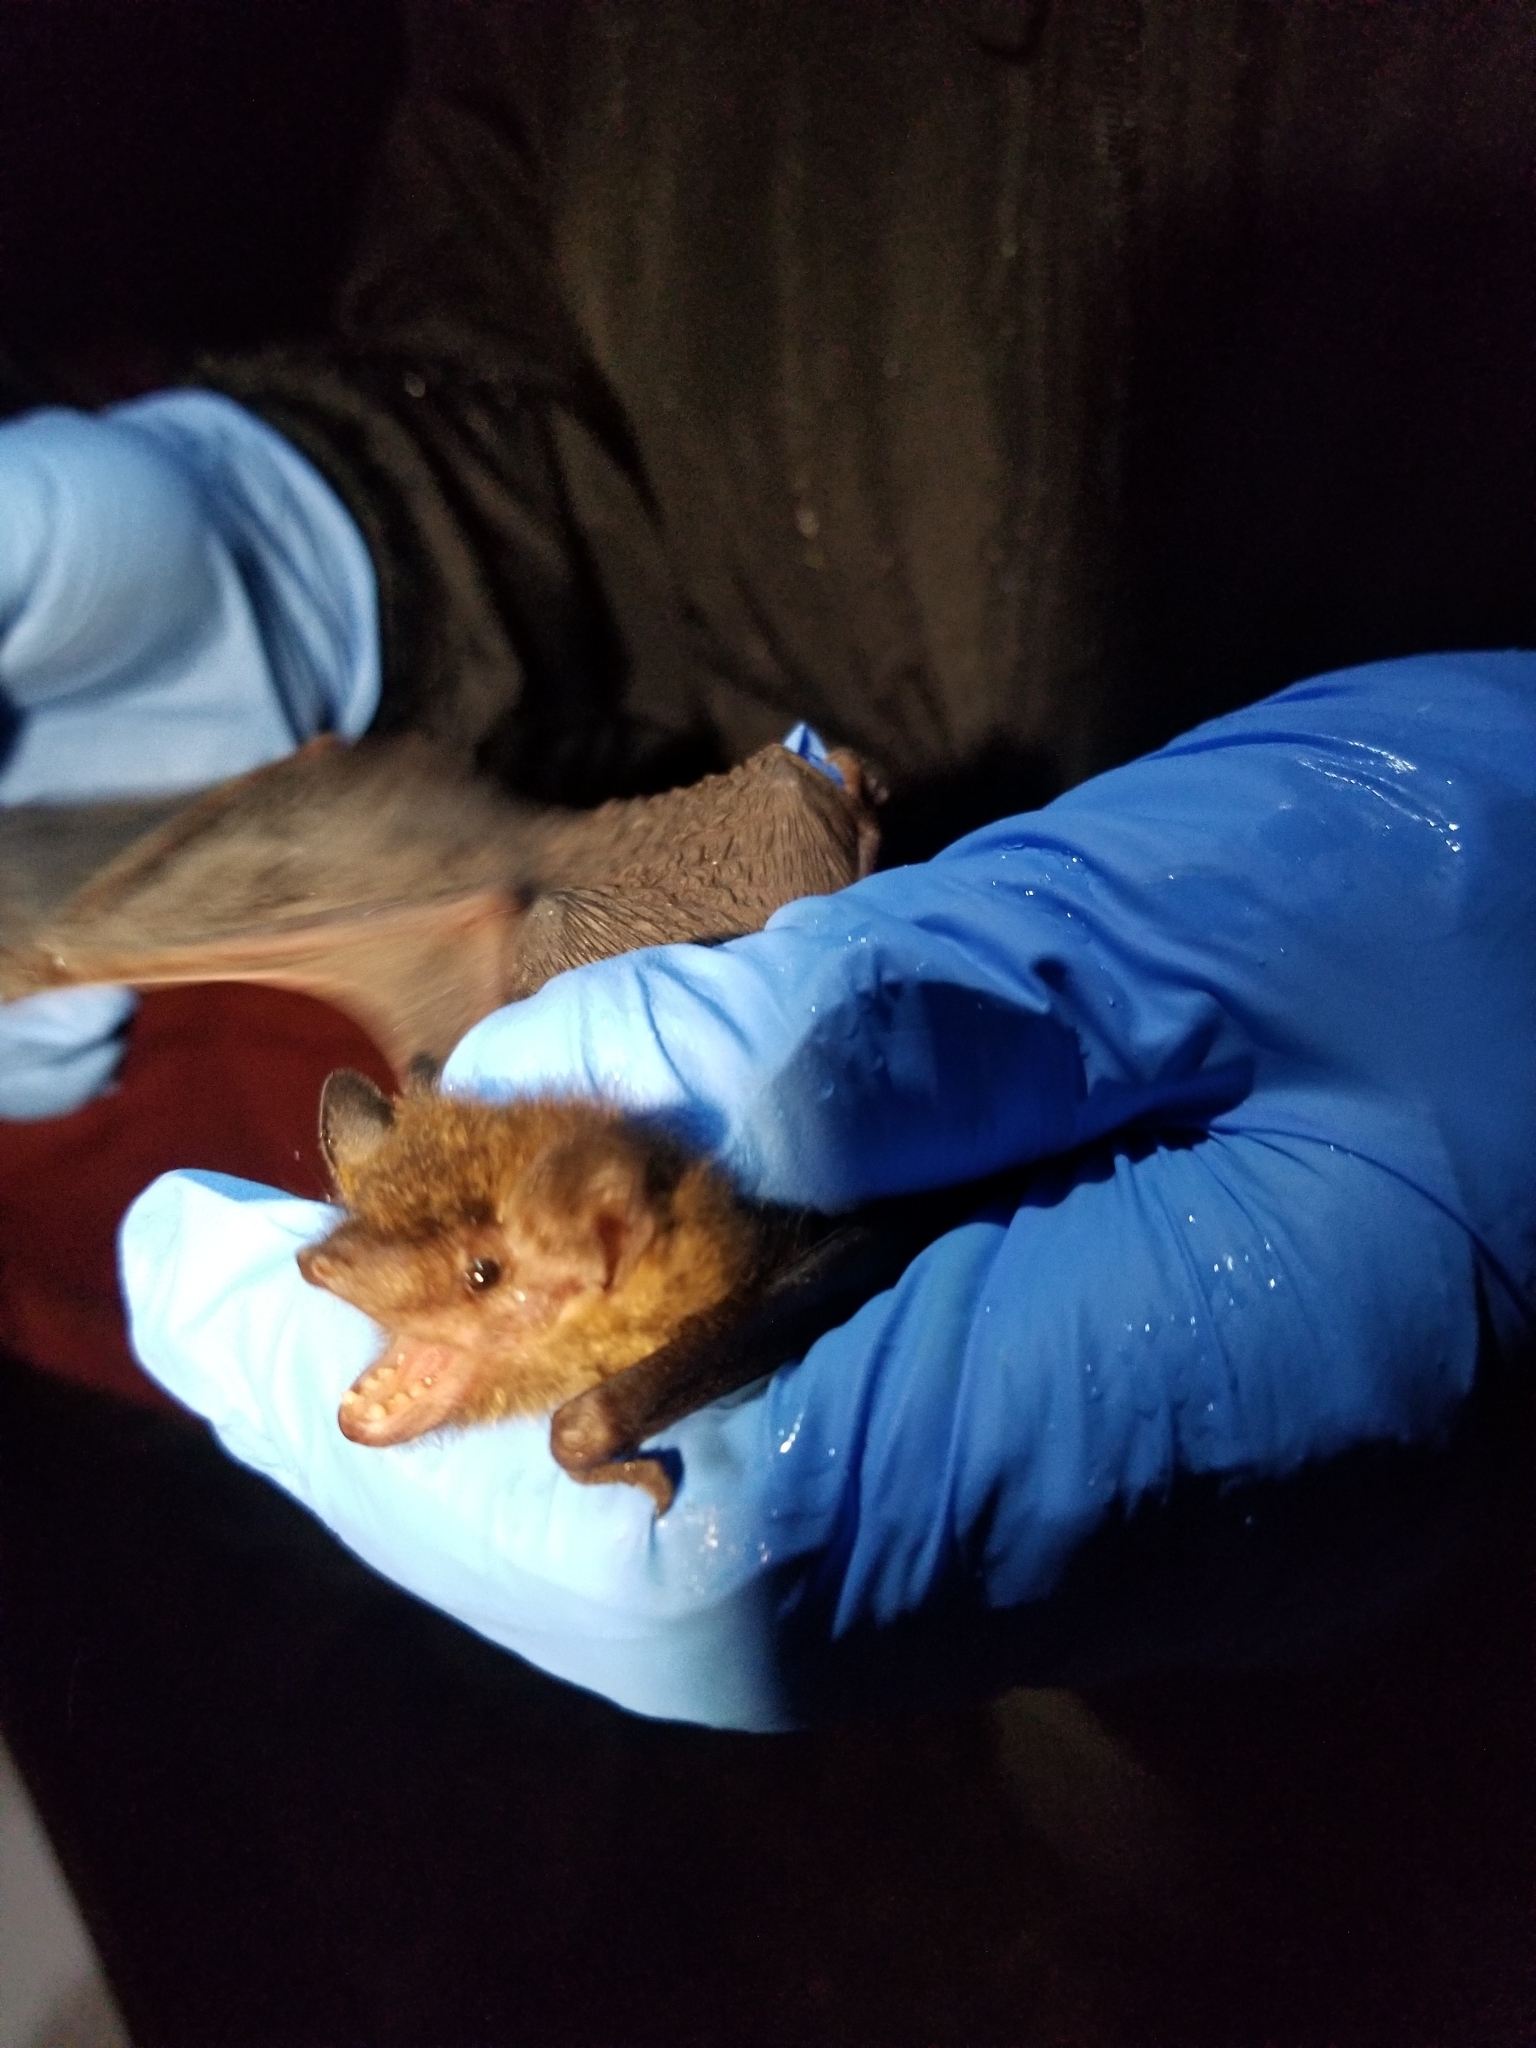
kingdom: Animalia
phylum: Chordata
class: Mammalia
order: Chiroptera
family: Vespertilionidae
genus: Eptesicus
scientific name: Eptesicus fuscus
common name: Big brown bat
